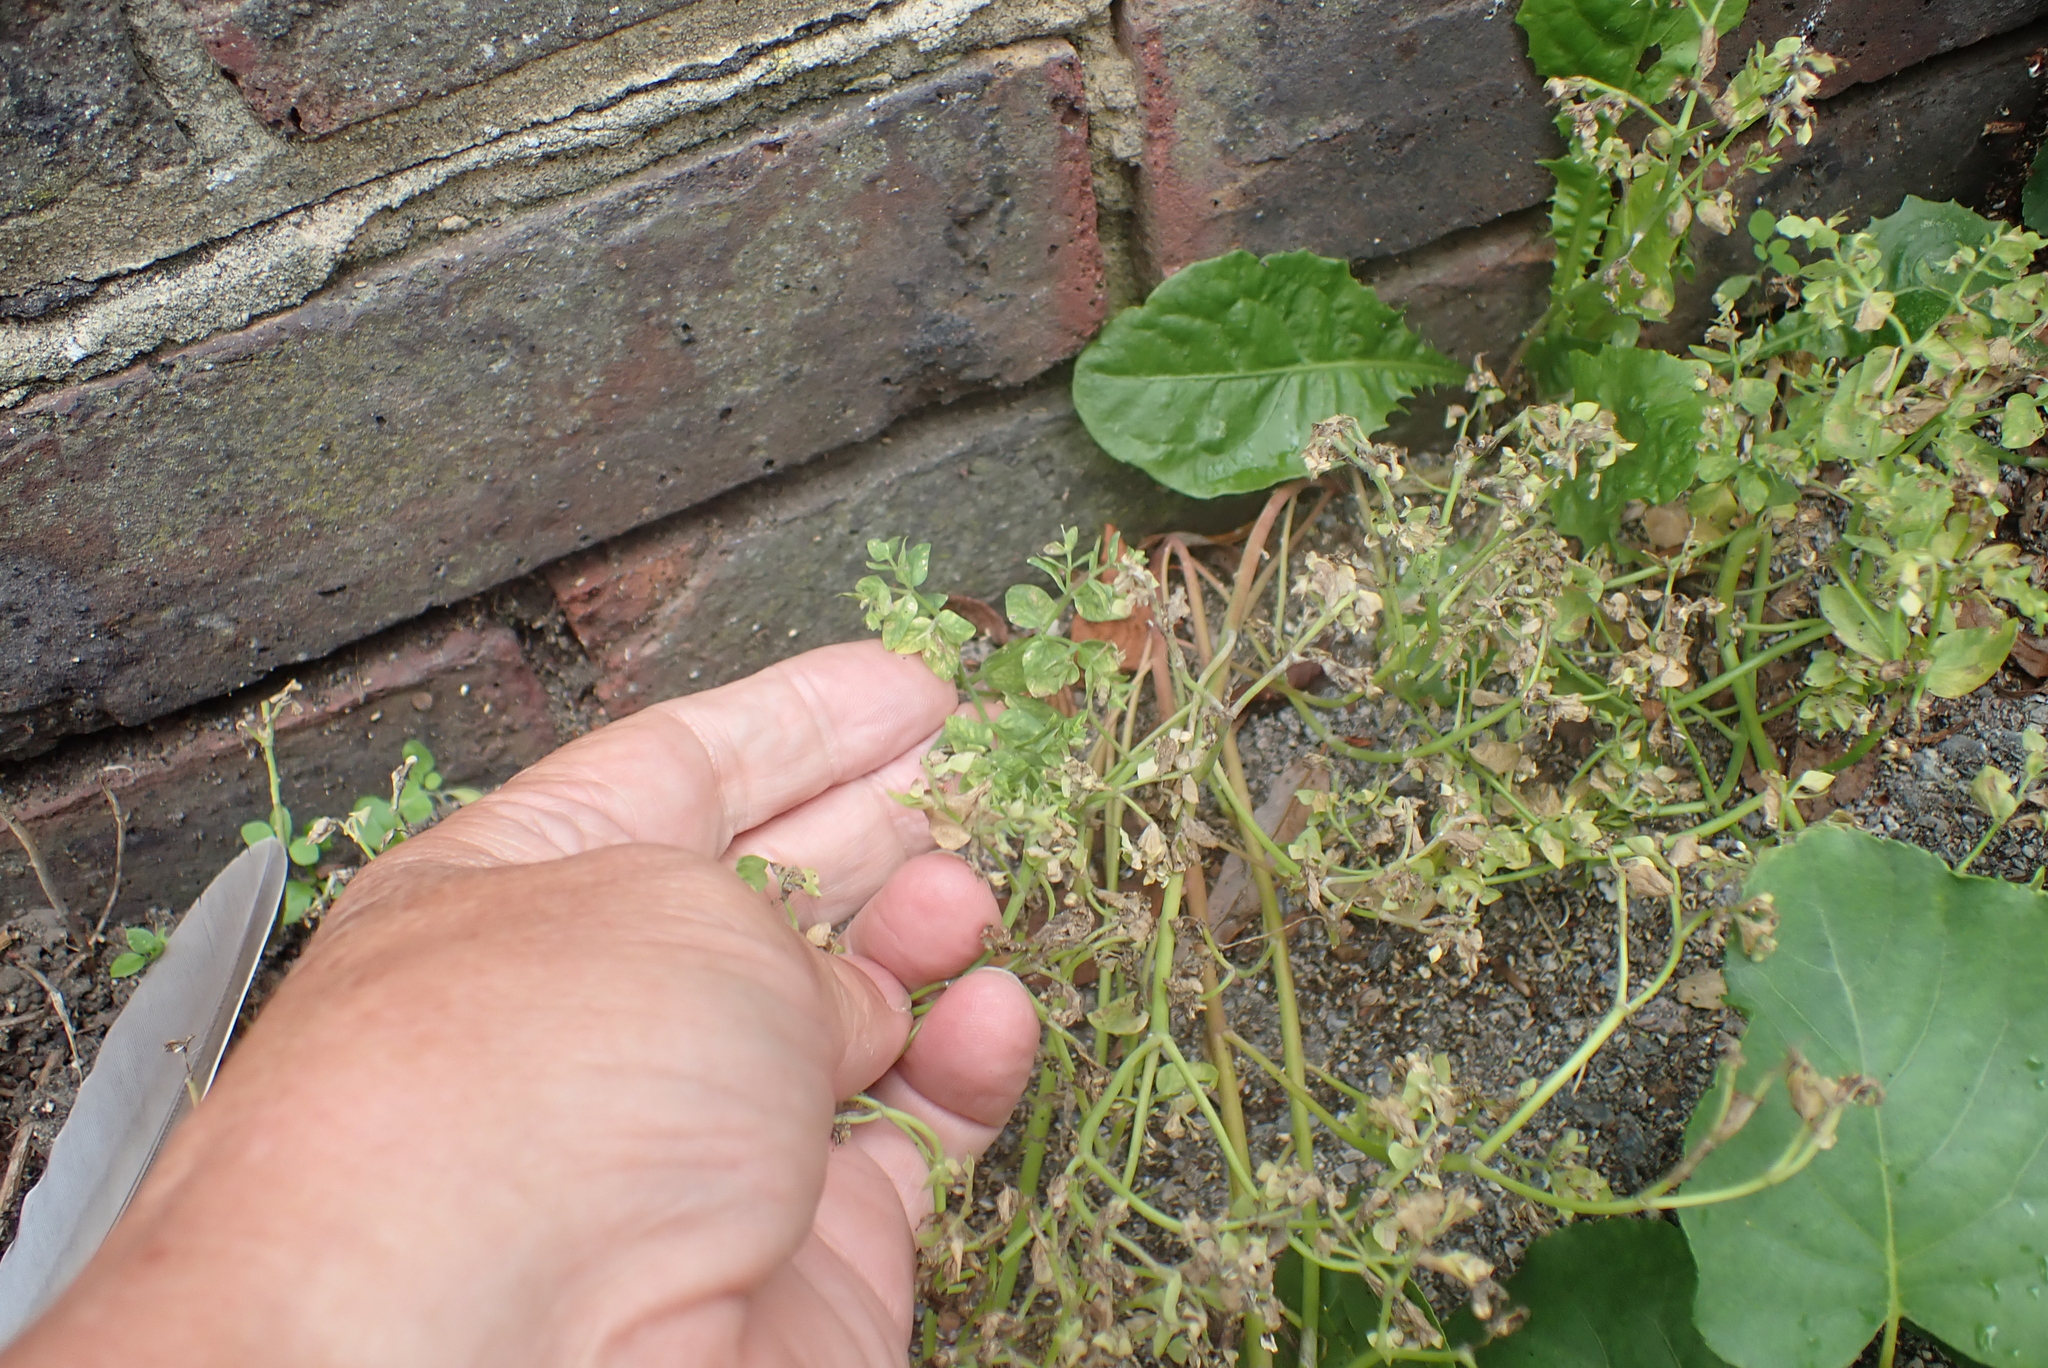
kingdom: Plantae
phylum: Tracheophyta
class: Magnoliopsida
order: Malpighiales
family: Euphorbiaceae
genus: Euphorbia
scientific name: Euphorbia peplus
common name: Petty spurge
